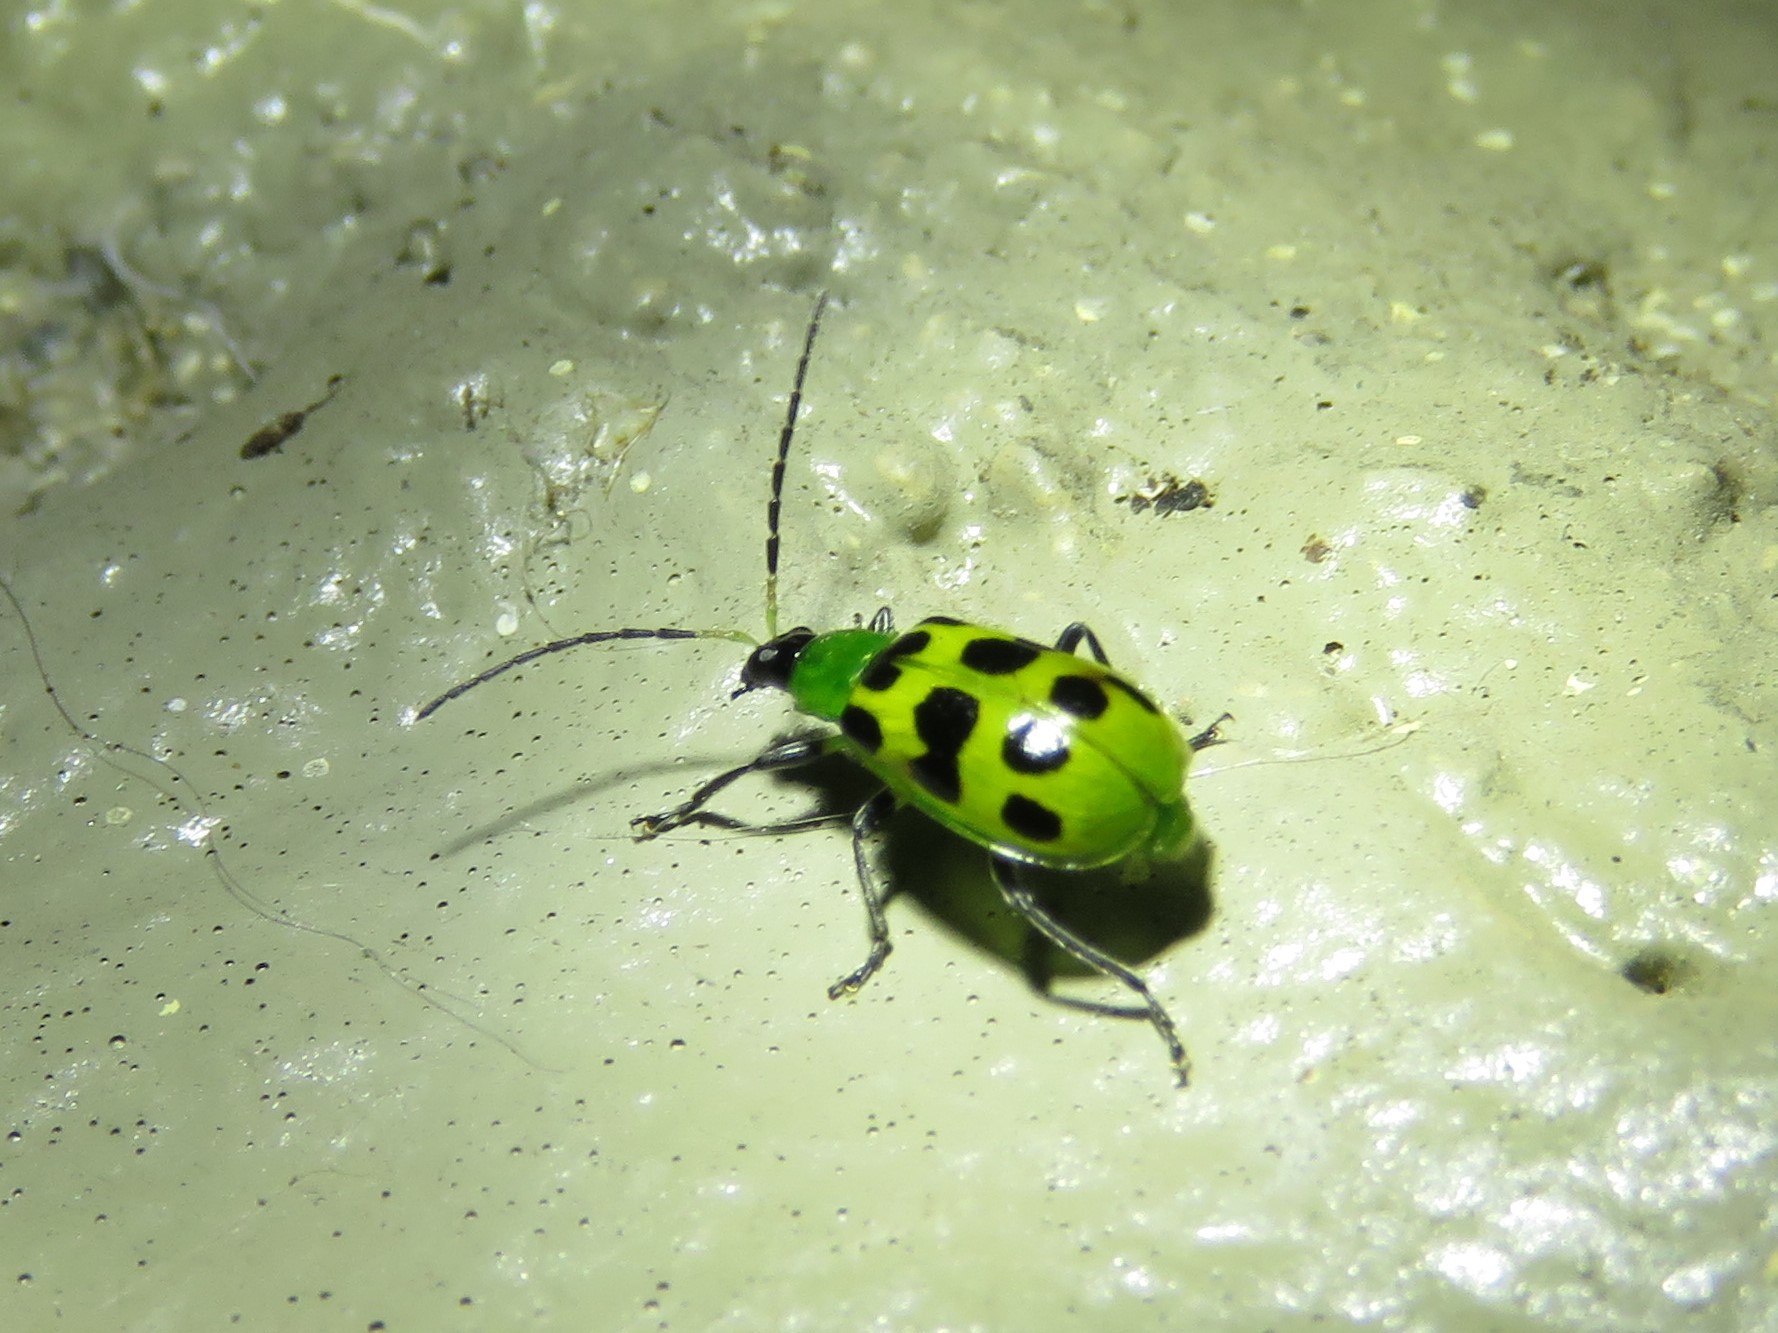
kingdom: Animalia
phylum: Arthropoda
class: Insecta
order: Coleoptera
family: Chrysomelidae
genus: Diabrotica
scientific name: Diabrotica undecimpunctata
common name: Spotted cucumber beetle
